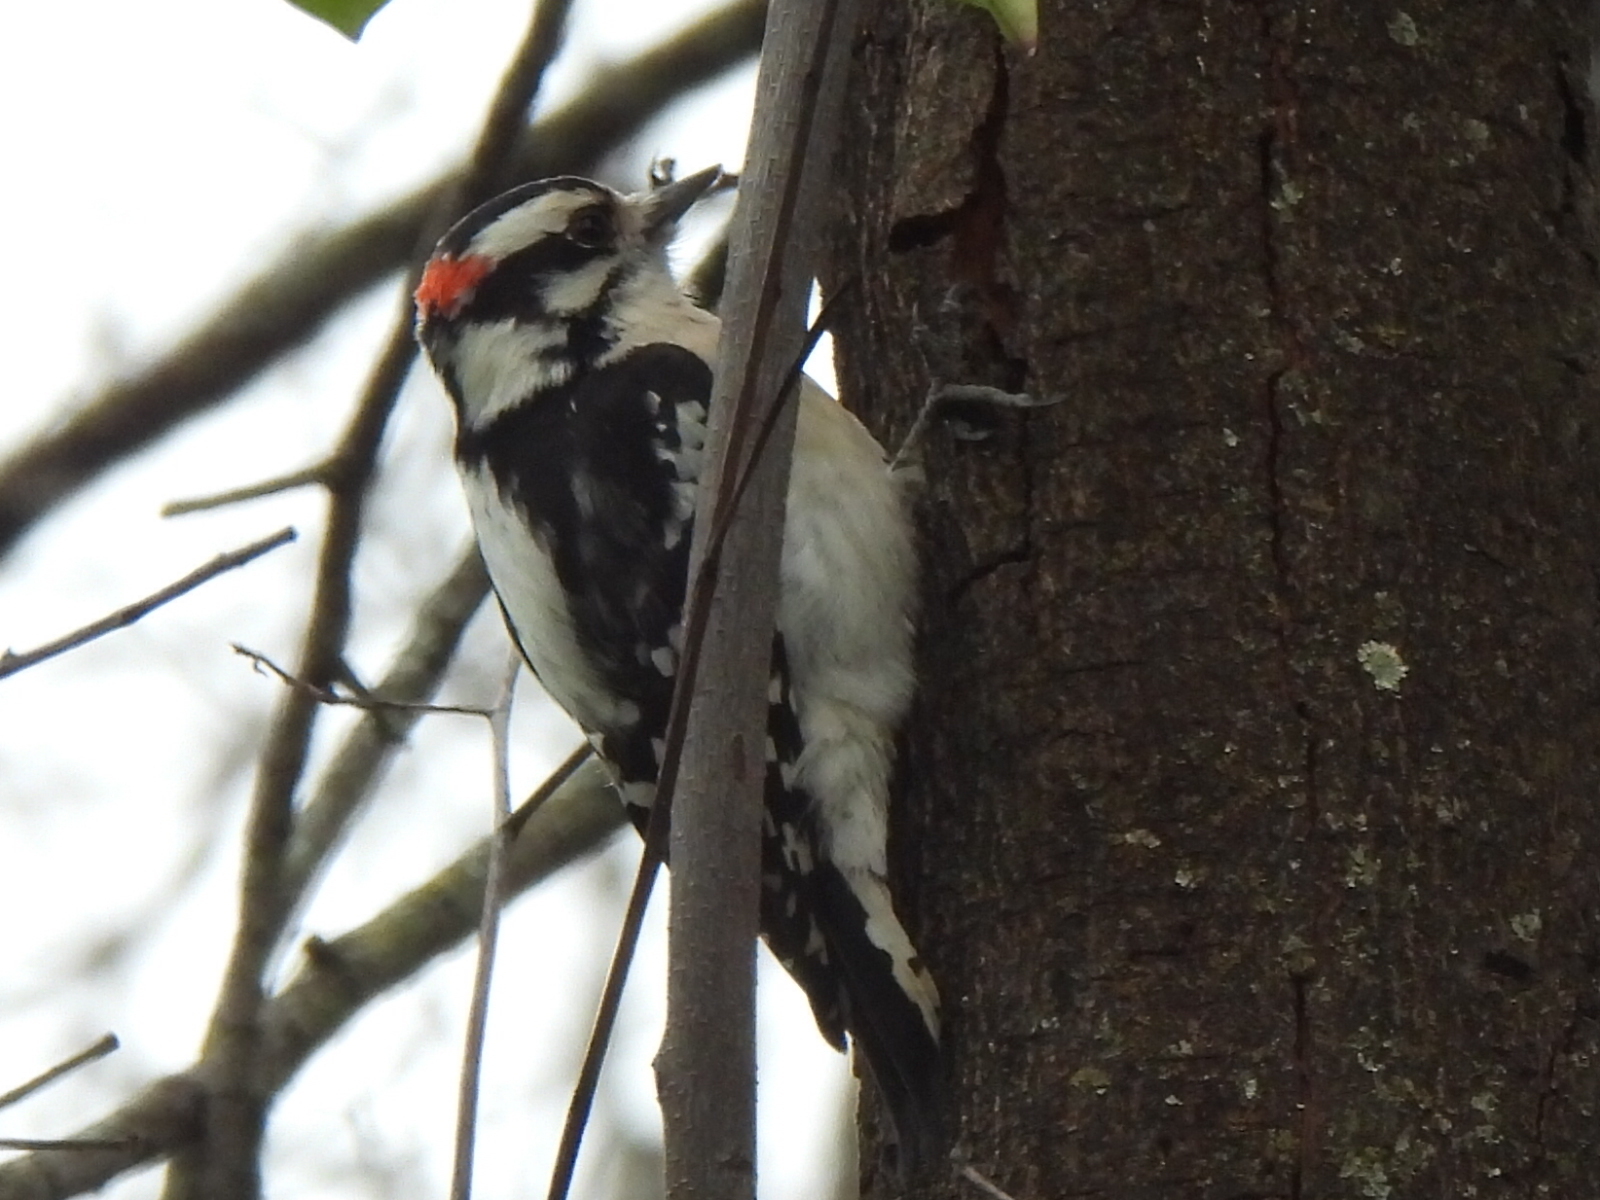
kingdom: Animalia
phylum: Chordata
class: Aves
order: Piciformes
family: Picidae
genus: Dryobates
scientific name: Dryobates pubescens
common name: Downy woodpecker
